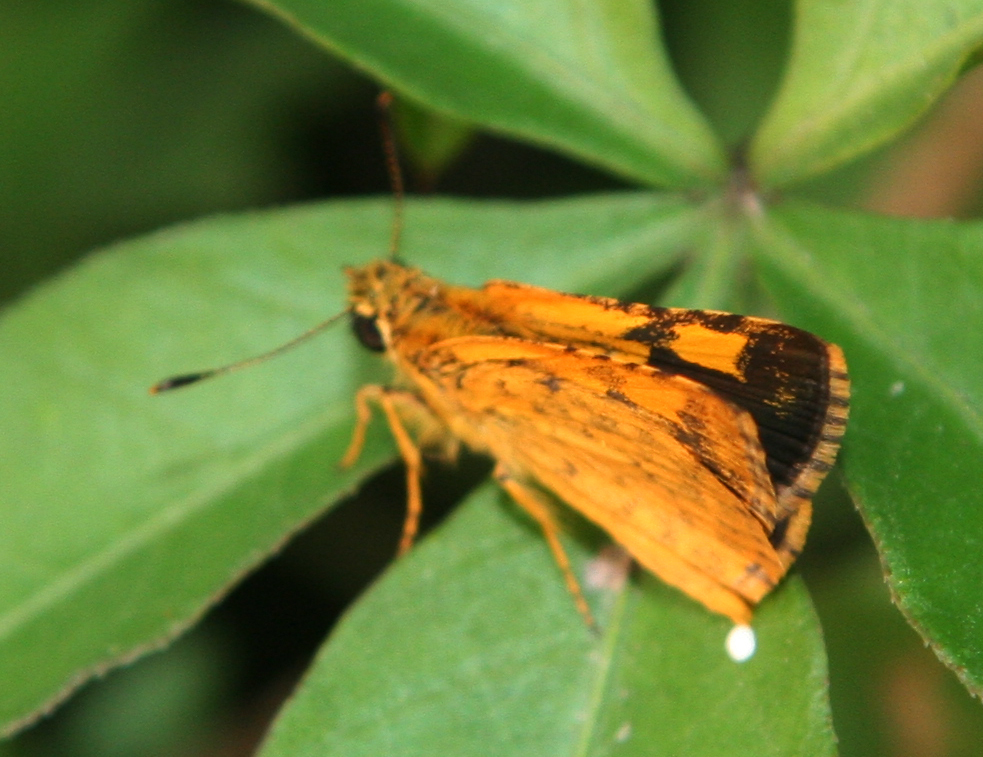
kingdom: Animalia
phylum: Arthropoda
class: Insecta
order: Lepidoptera
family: Hesperiidae
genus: Ampittia
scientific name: Ampittia dioscorides
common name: Common bush hopper
